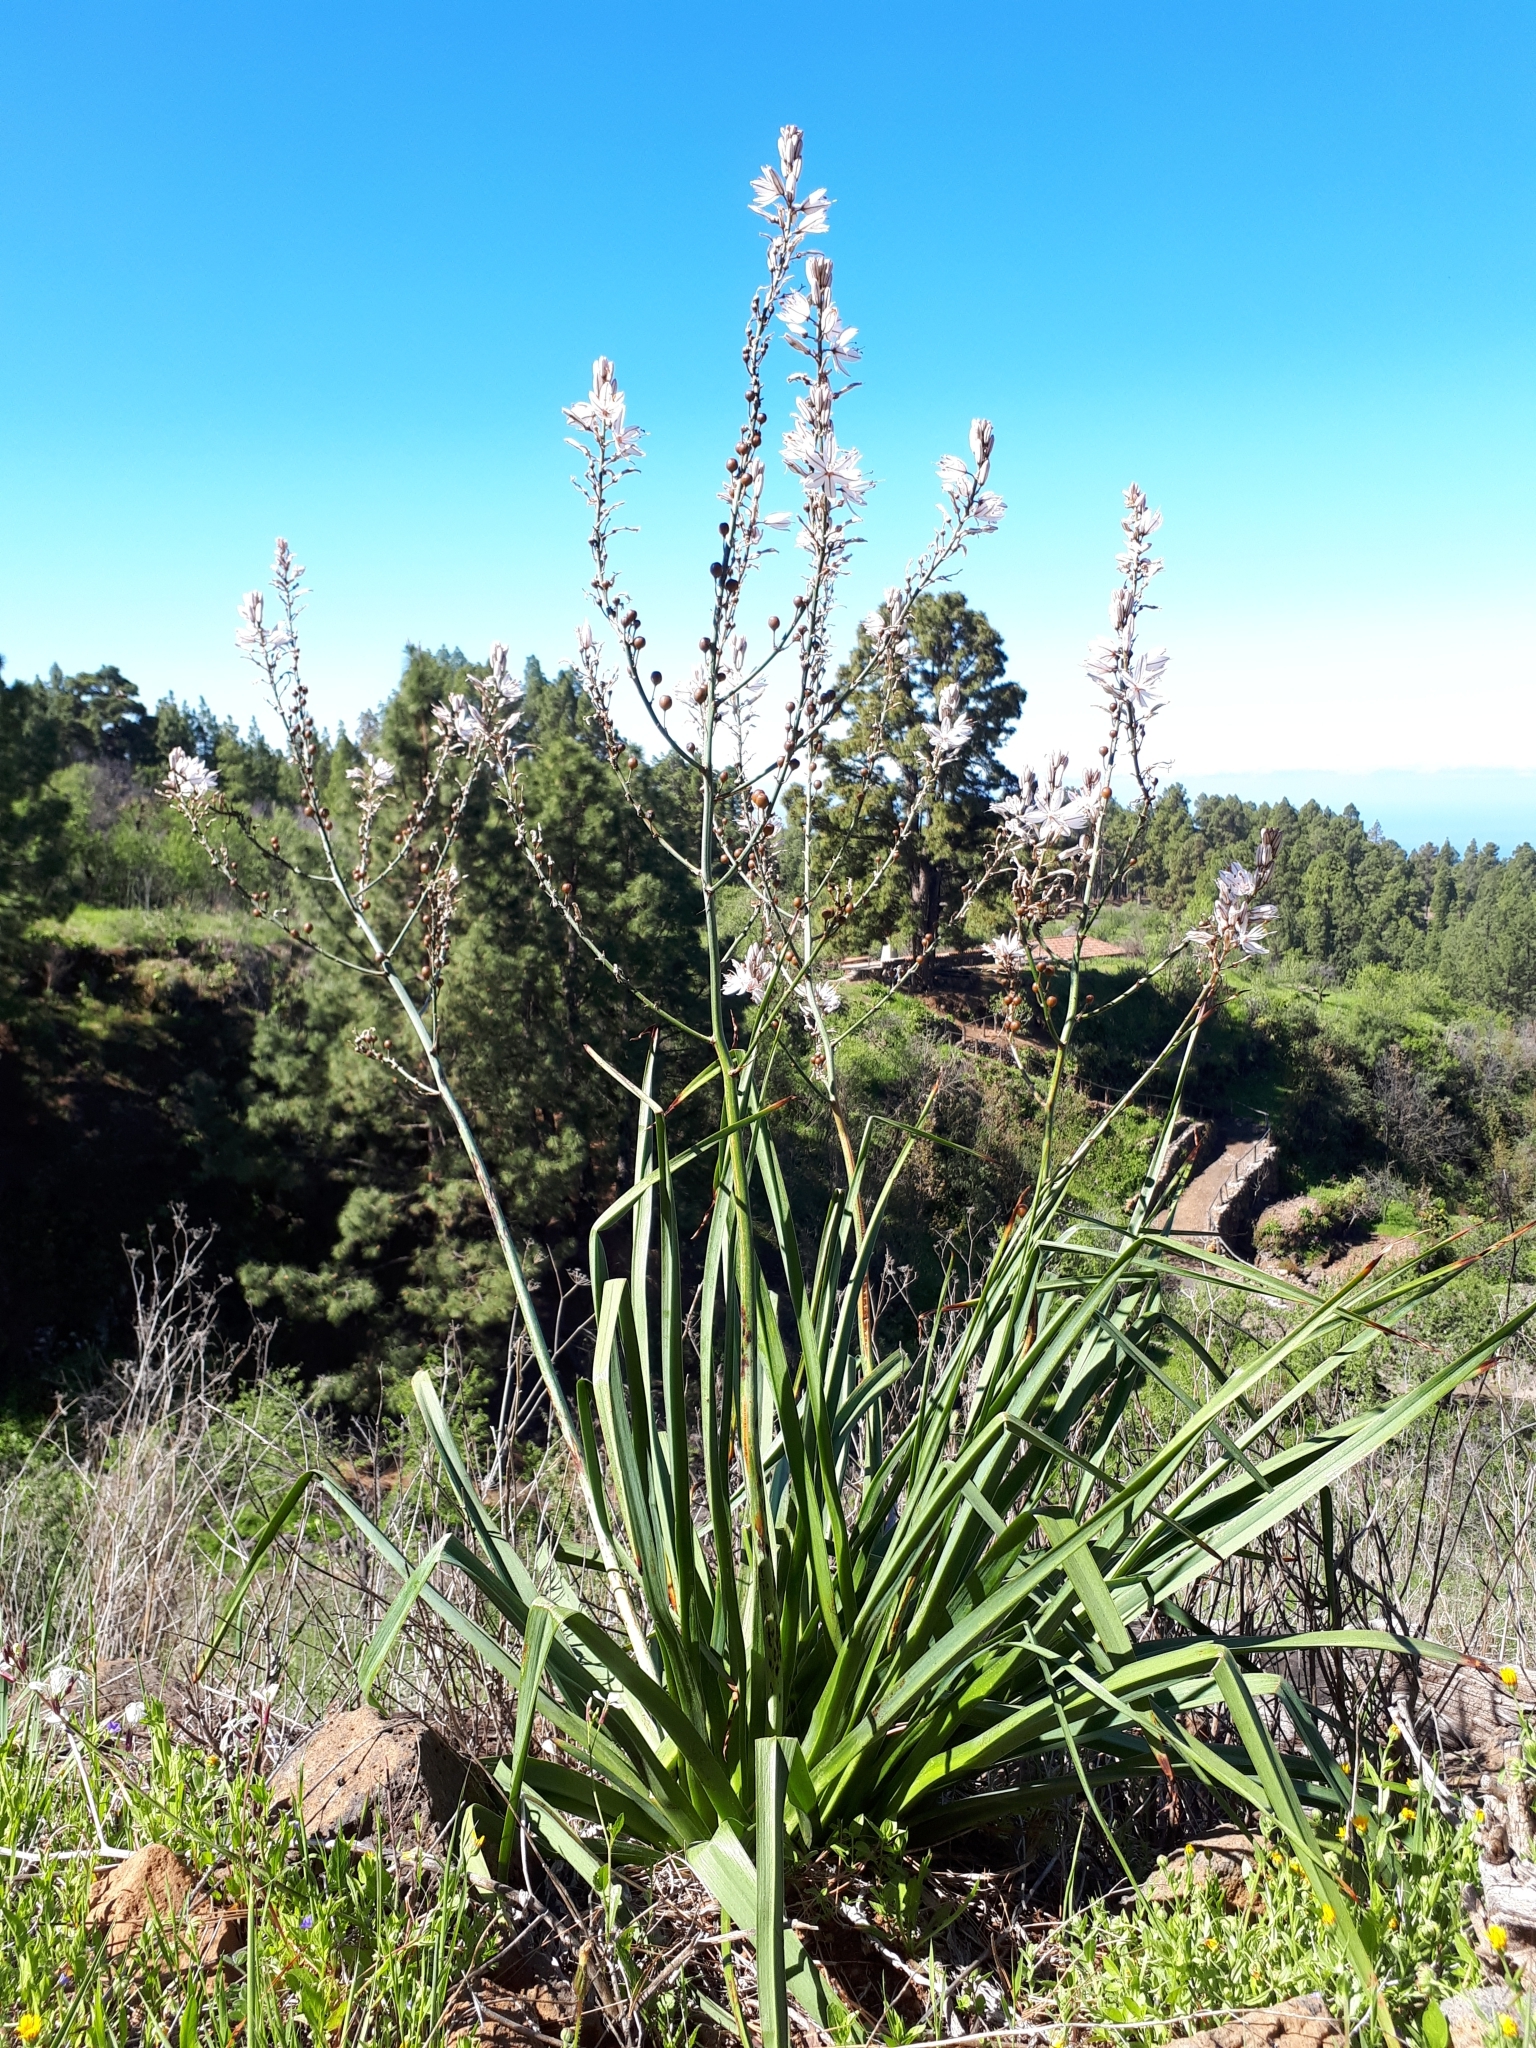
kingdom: Plantae
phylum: Tracheophyta
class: Liliopsida
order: Asparagales
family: Asphodelaceae
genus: Asphodelus
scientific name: Asphodelus ramosus
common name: Silverrod
